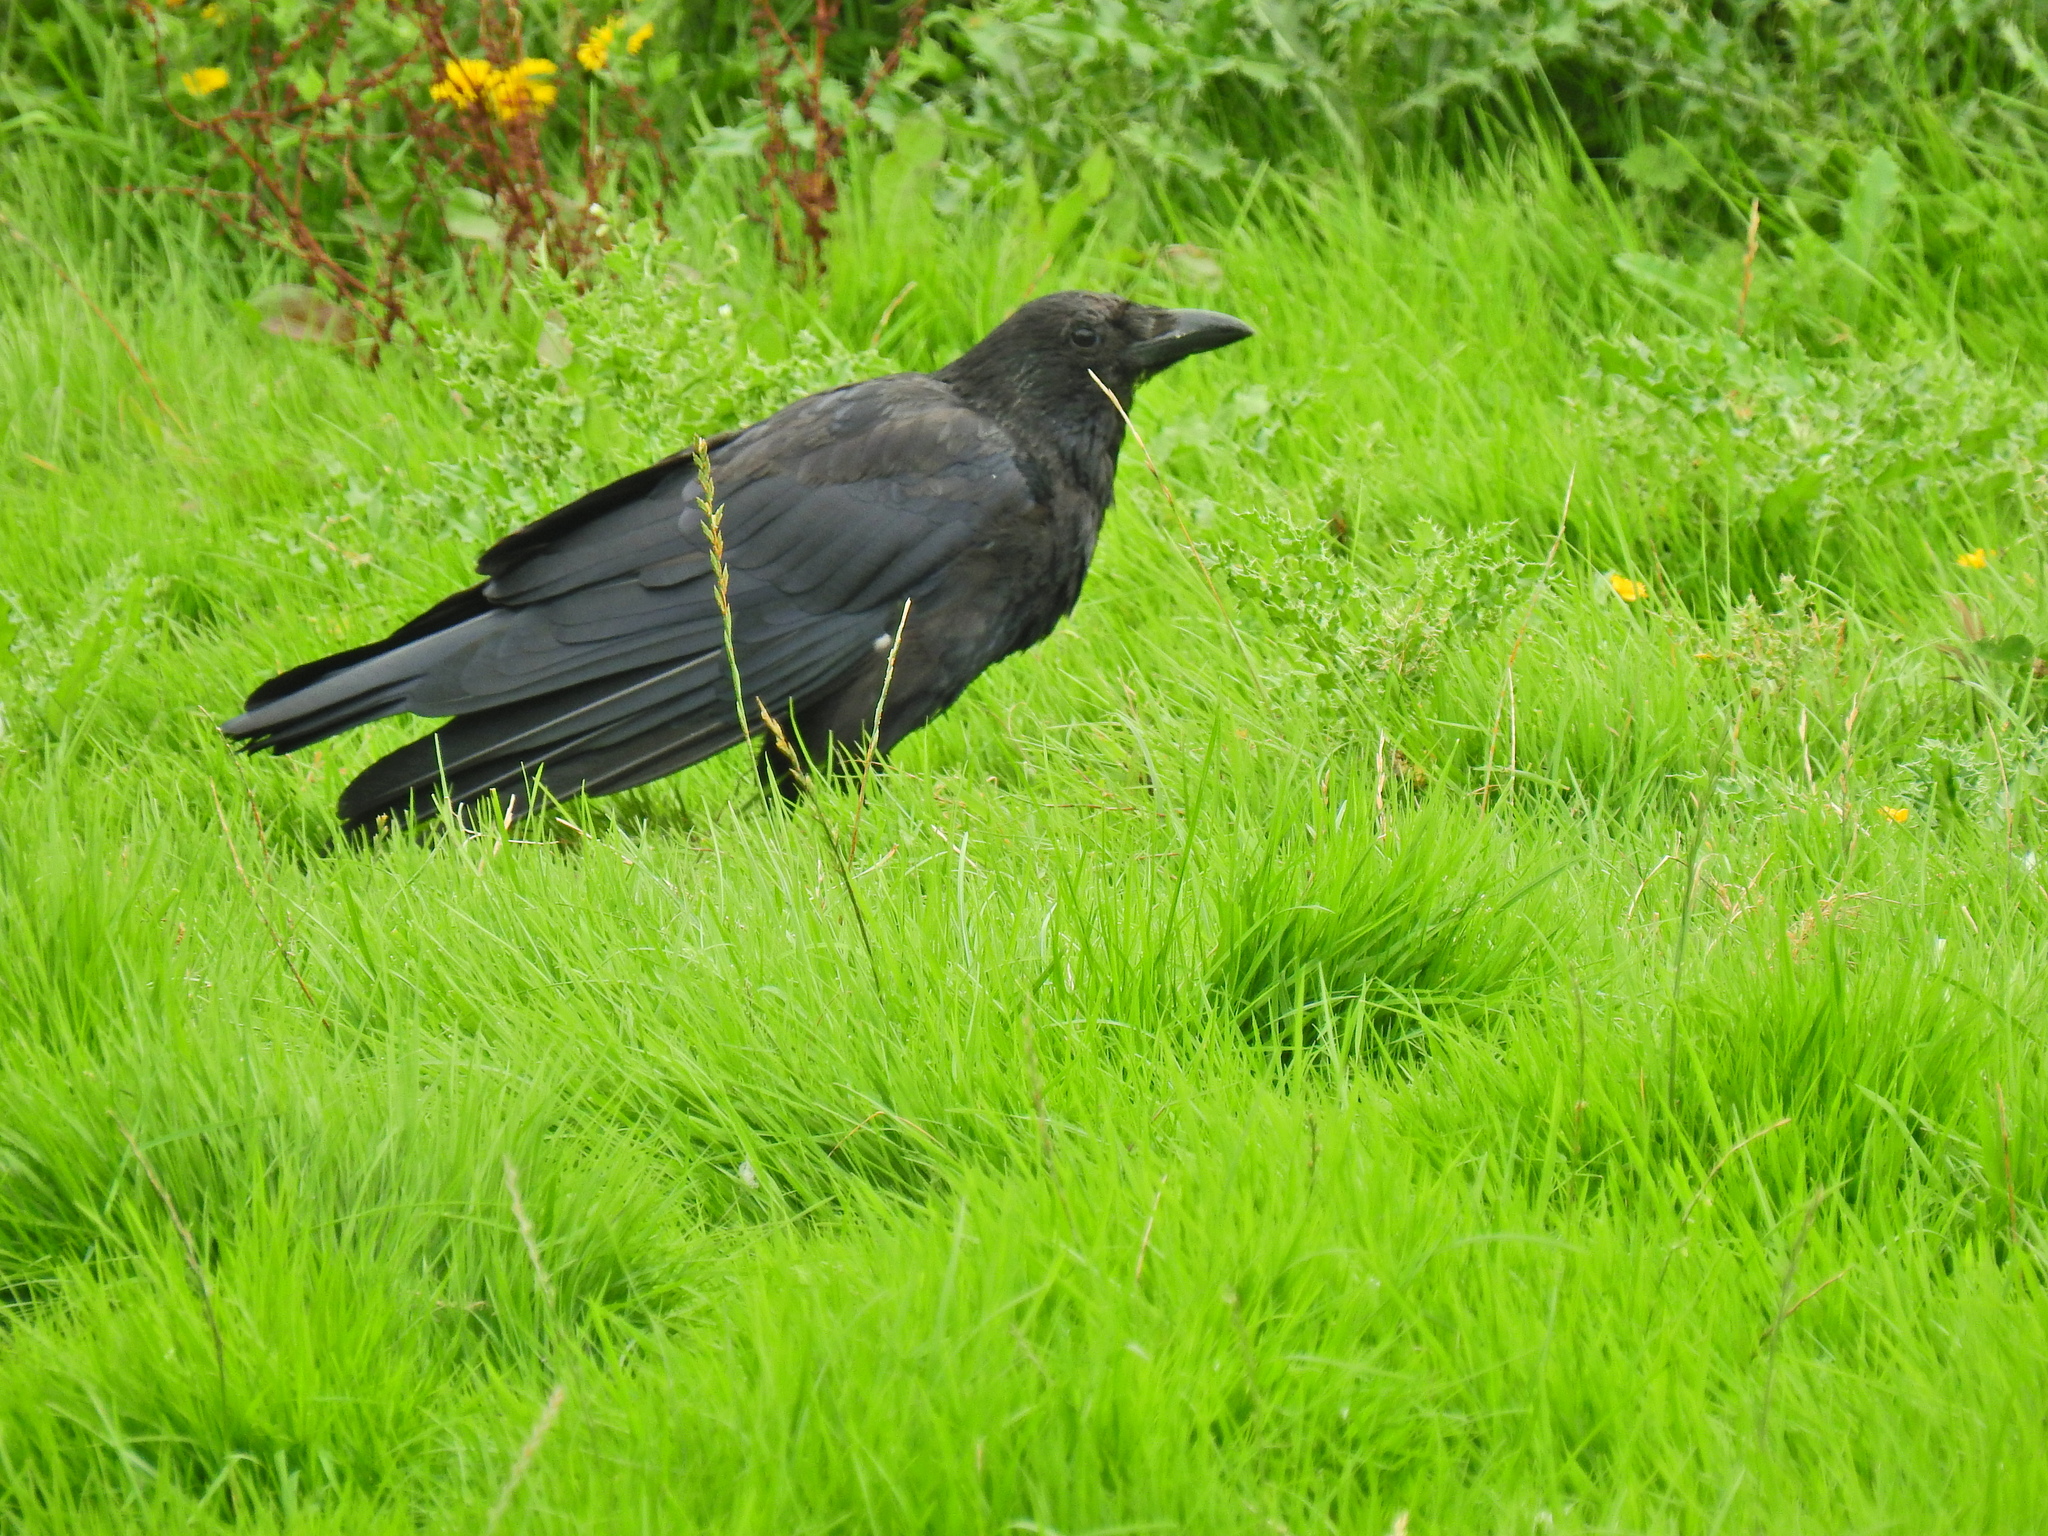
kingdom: Animalia
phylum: Chordata
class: Aves
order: Passeriformes
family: Corvidae
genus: Corvus
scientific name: Corvus corone
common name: Carrion crow
